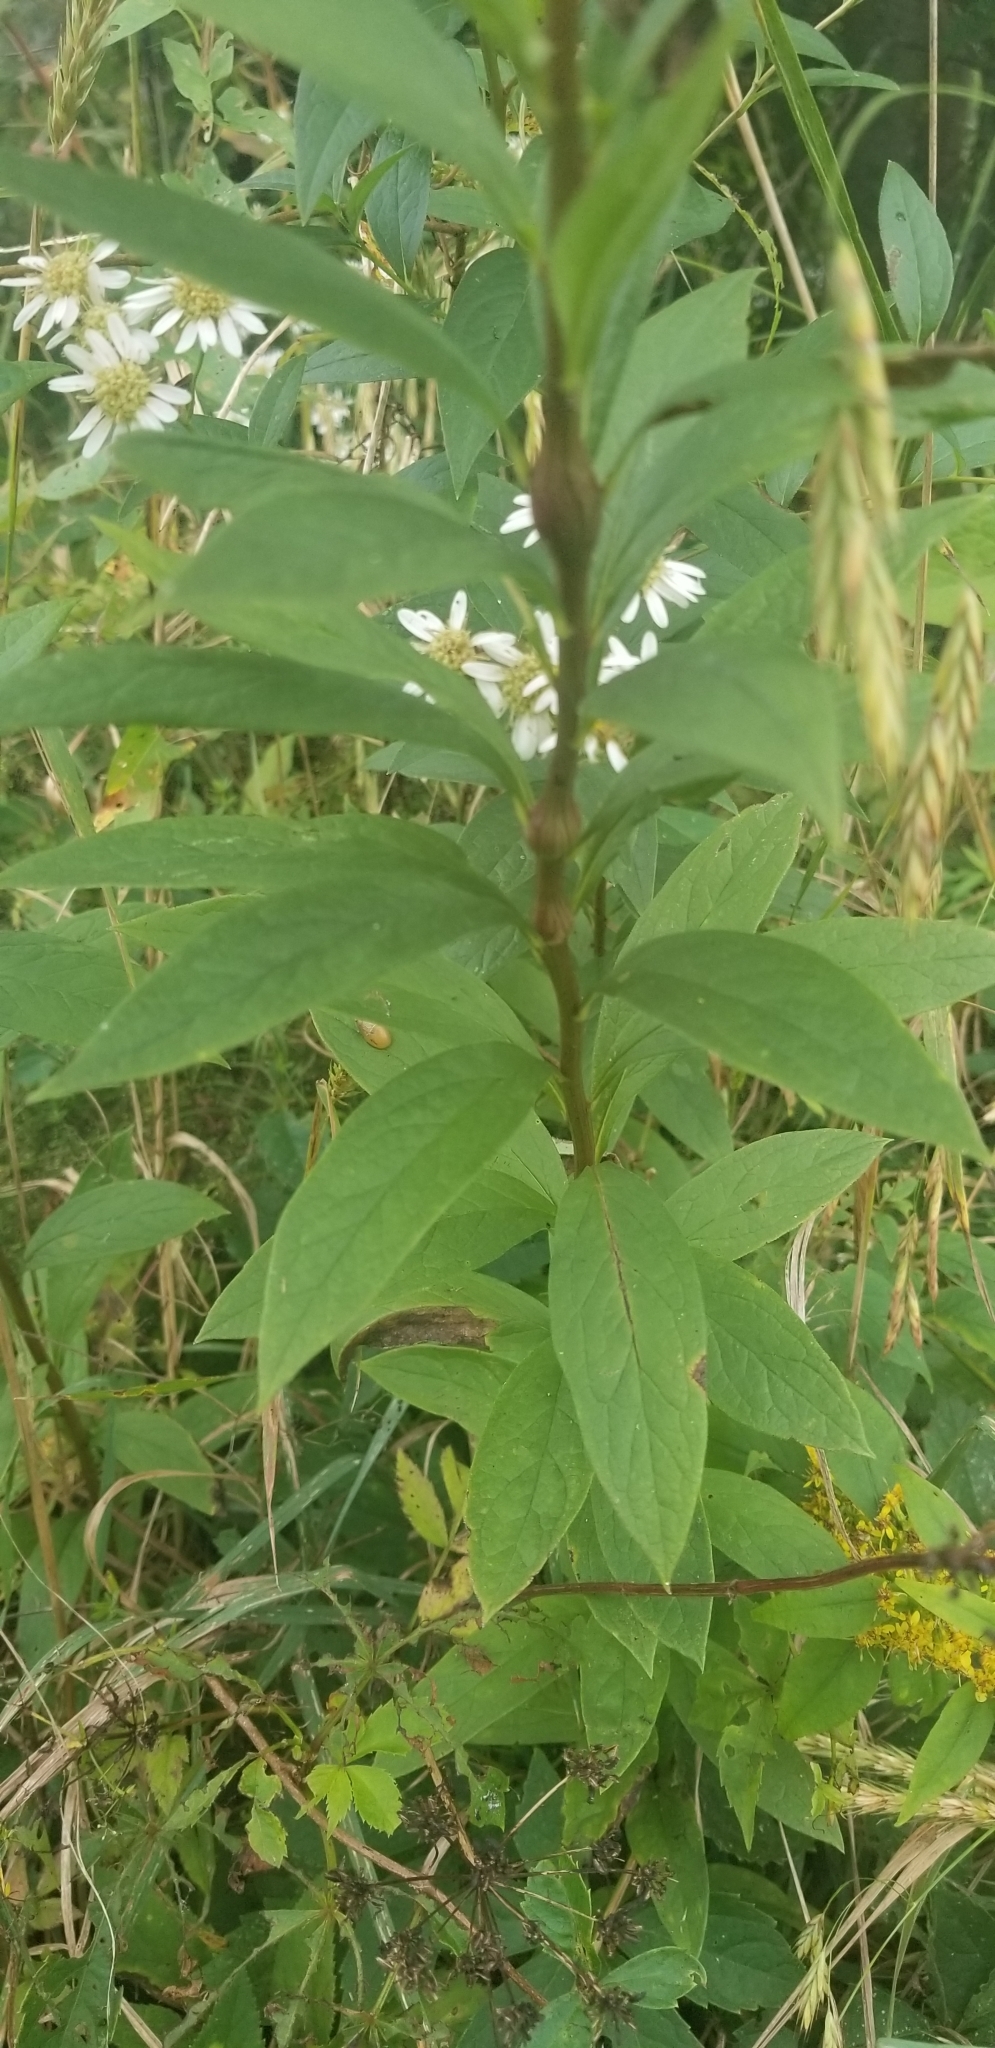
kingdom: Plantae
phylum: Tracheophyta
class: Magnoliopsida
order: Asterales
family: Asteraceae
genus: Doellingeria
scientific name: Doellingeria umbellata
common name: Flat-top white aster
